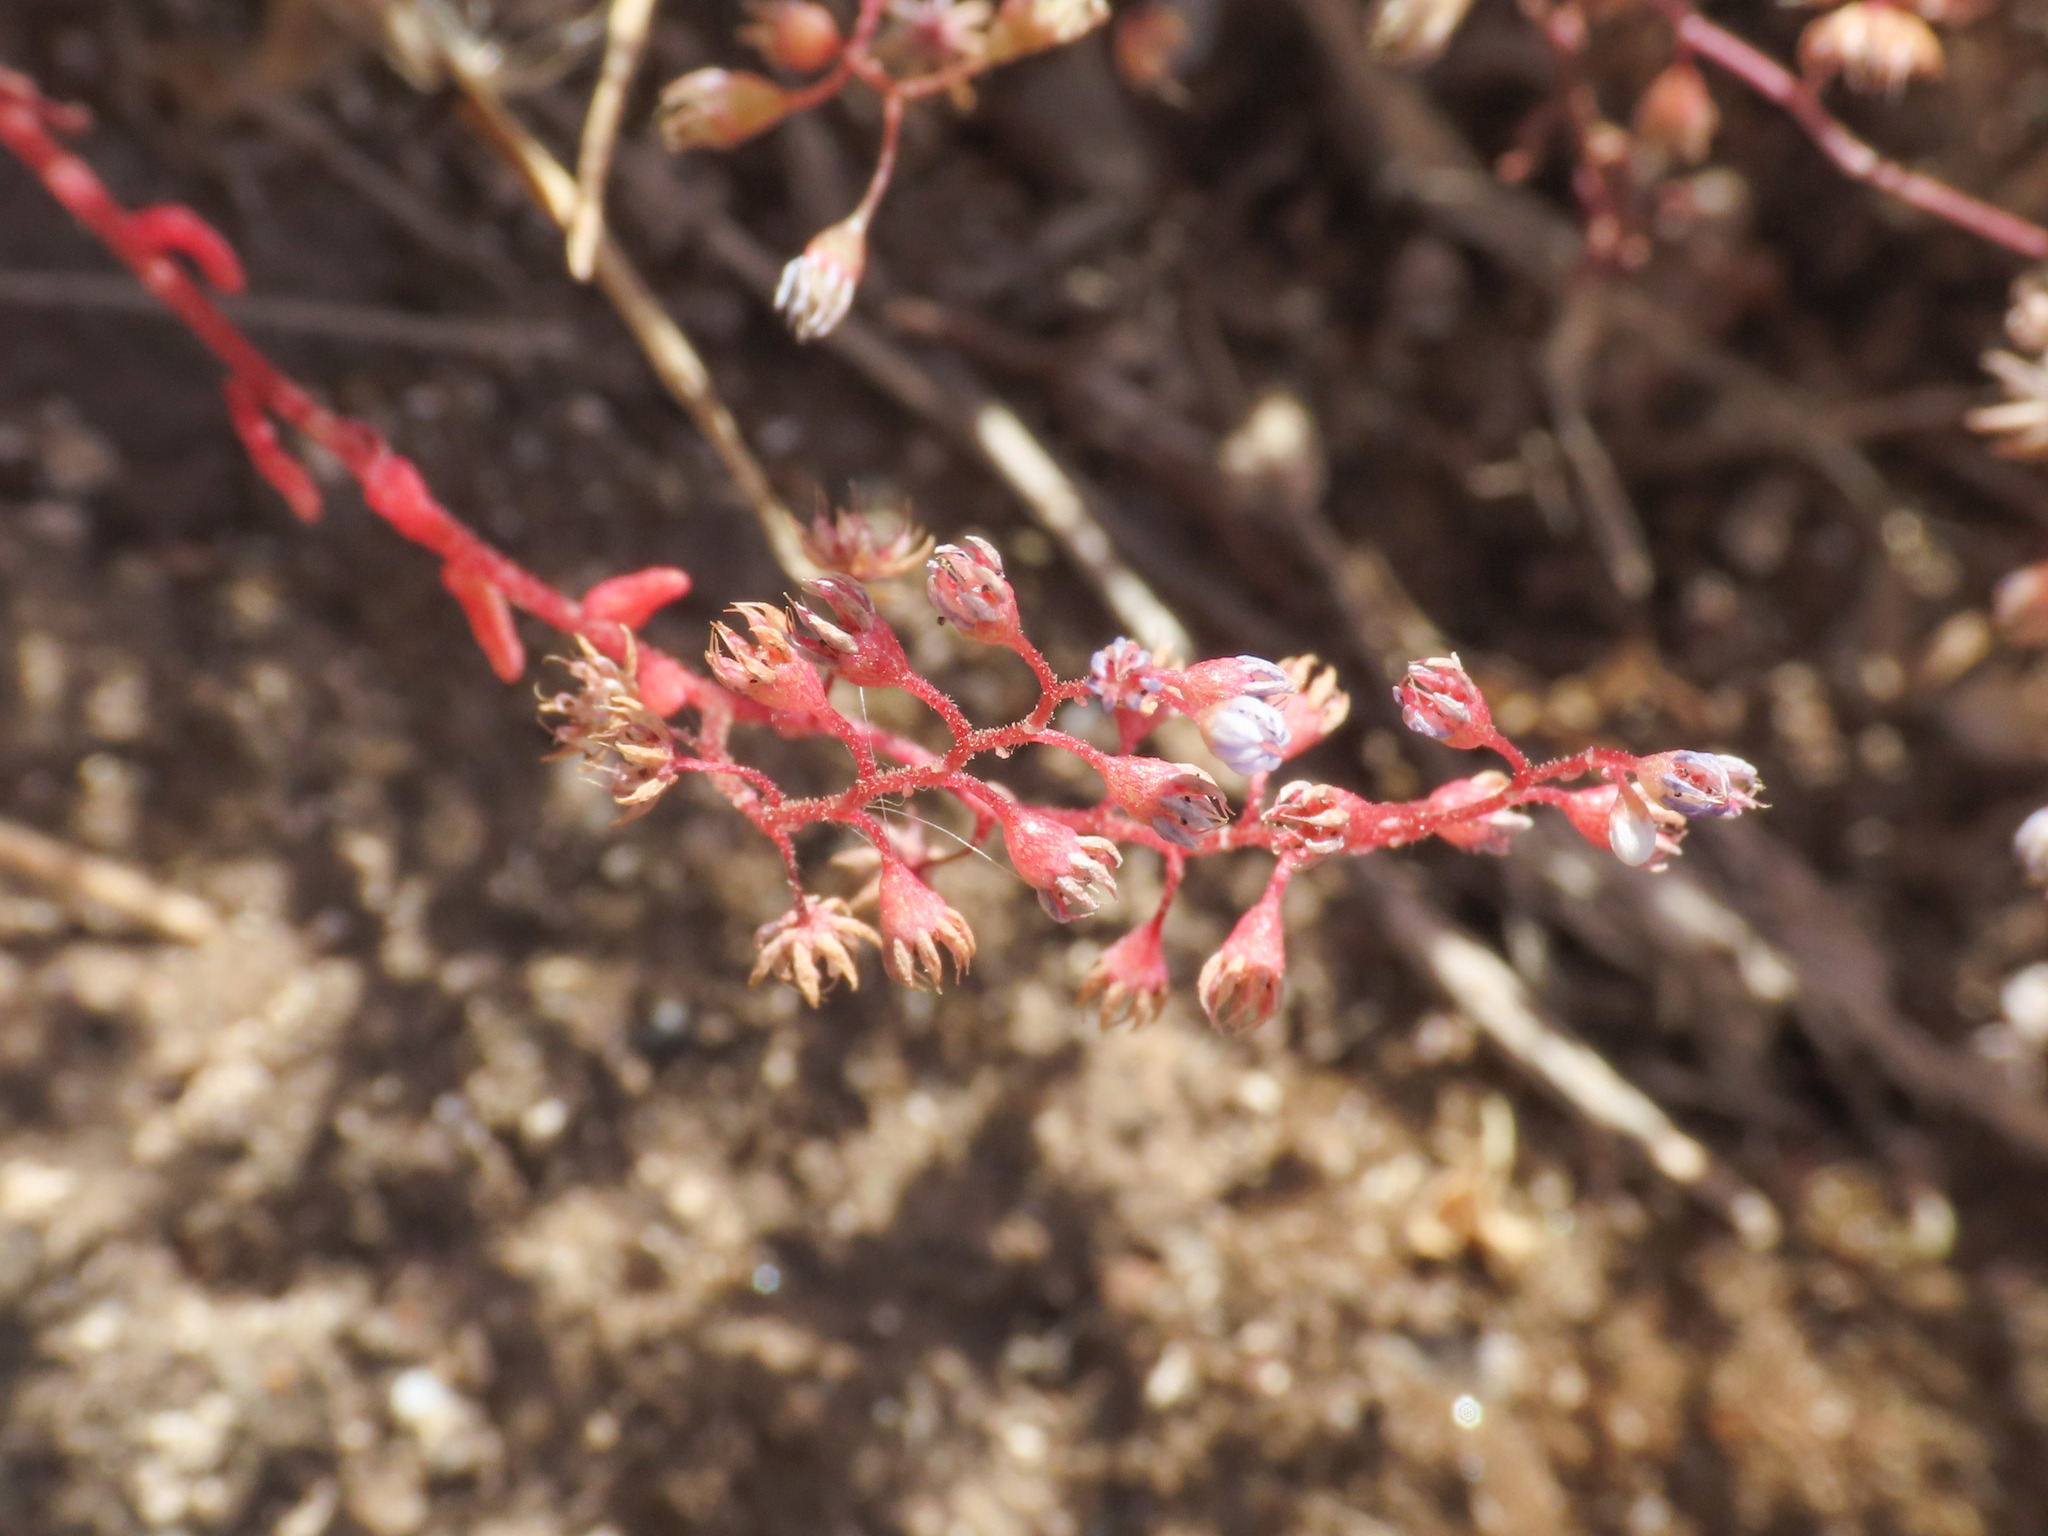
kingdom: Plantae
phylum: Tracheophyta
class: Magnoliopsida
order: Saxifragales
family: Crassulaceae
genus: Sedum
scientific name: Sedum caeruleum
